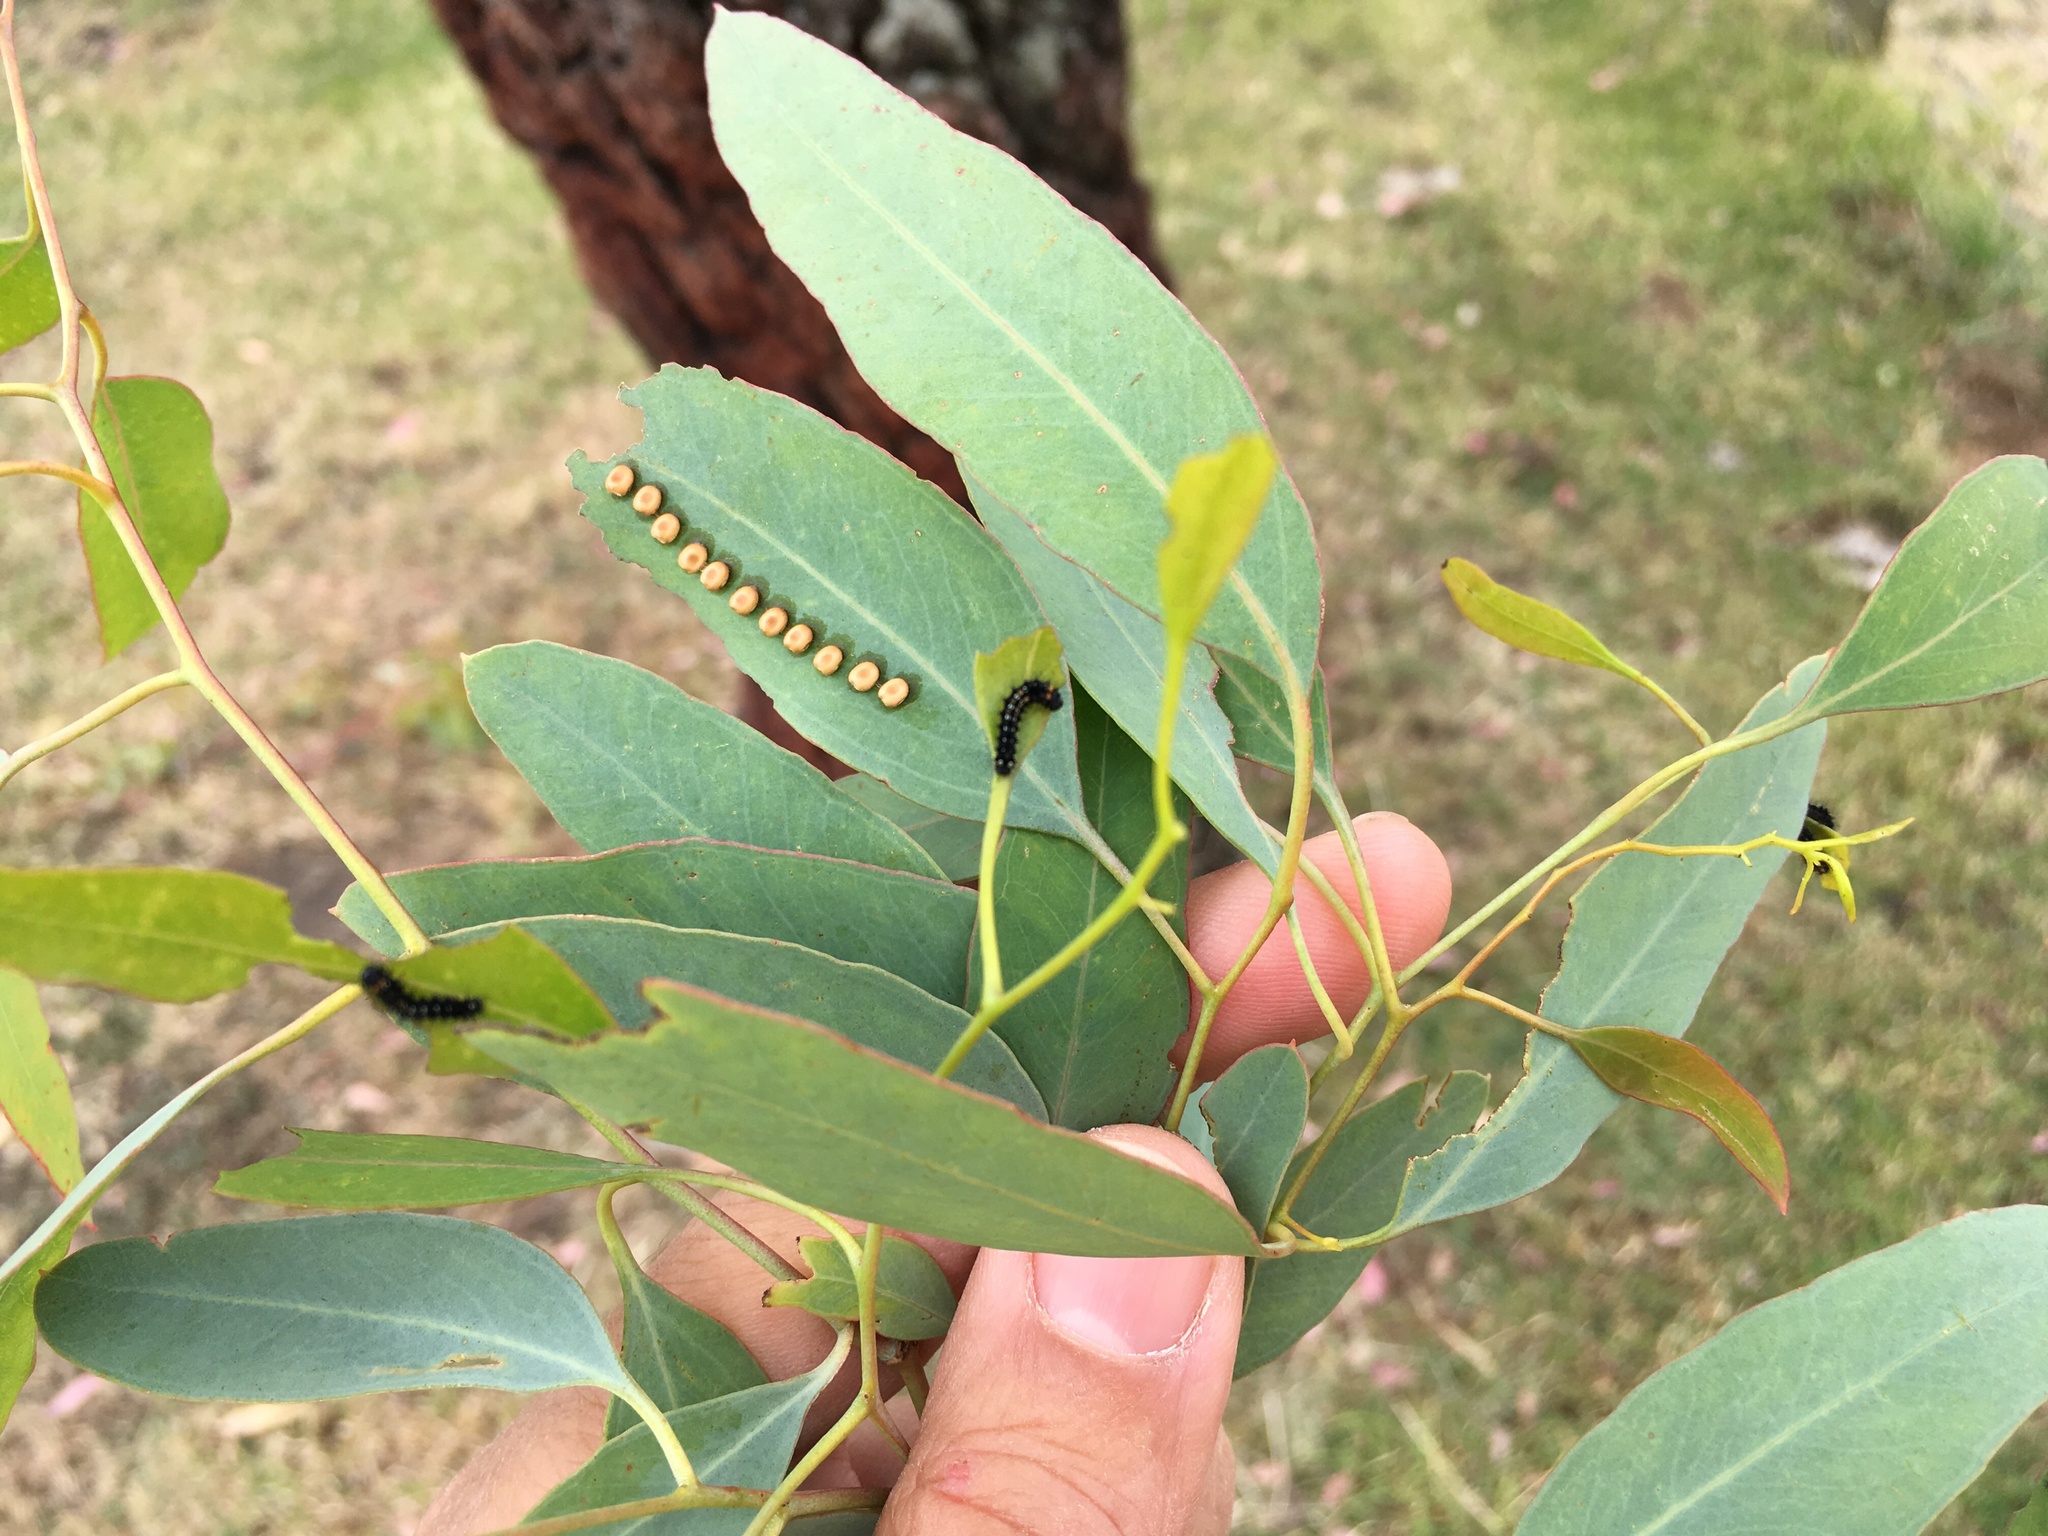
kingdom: Animalia
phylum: Arthropoda
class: Insecta
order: Lepidoptera
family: Saturniidae
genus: Opodiphthera
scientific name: Opodiphthera
